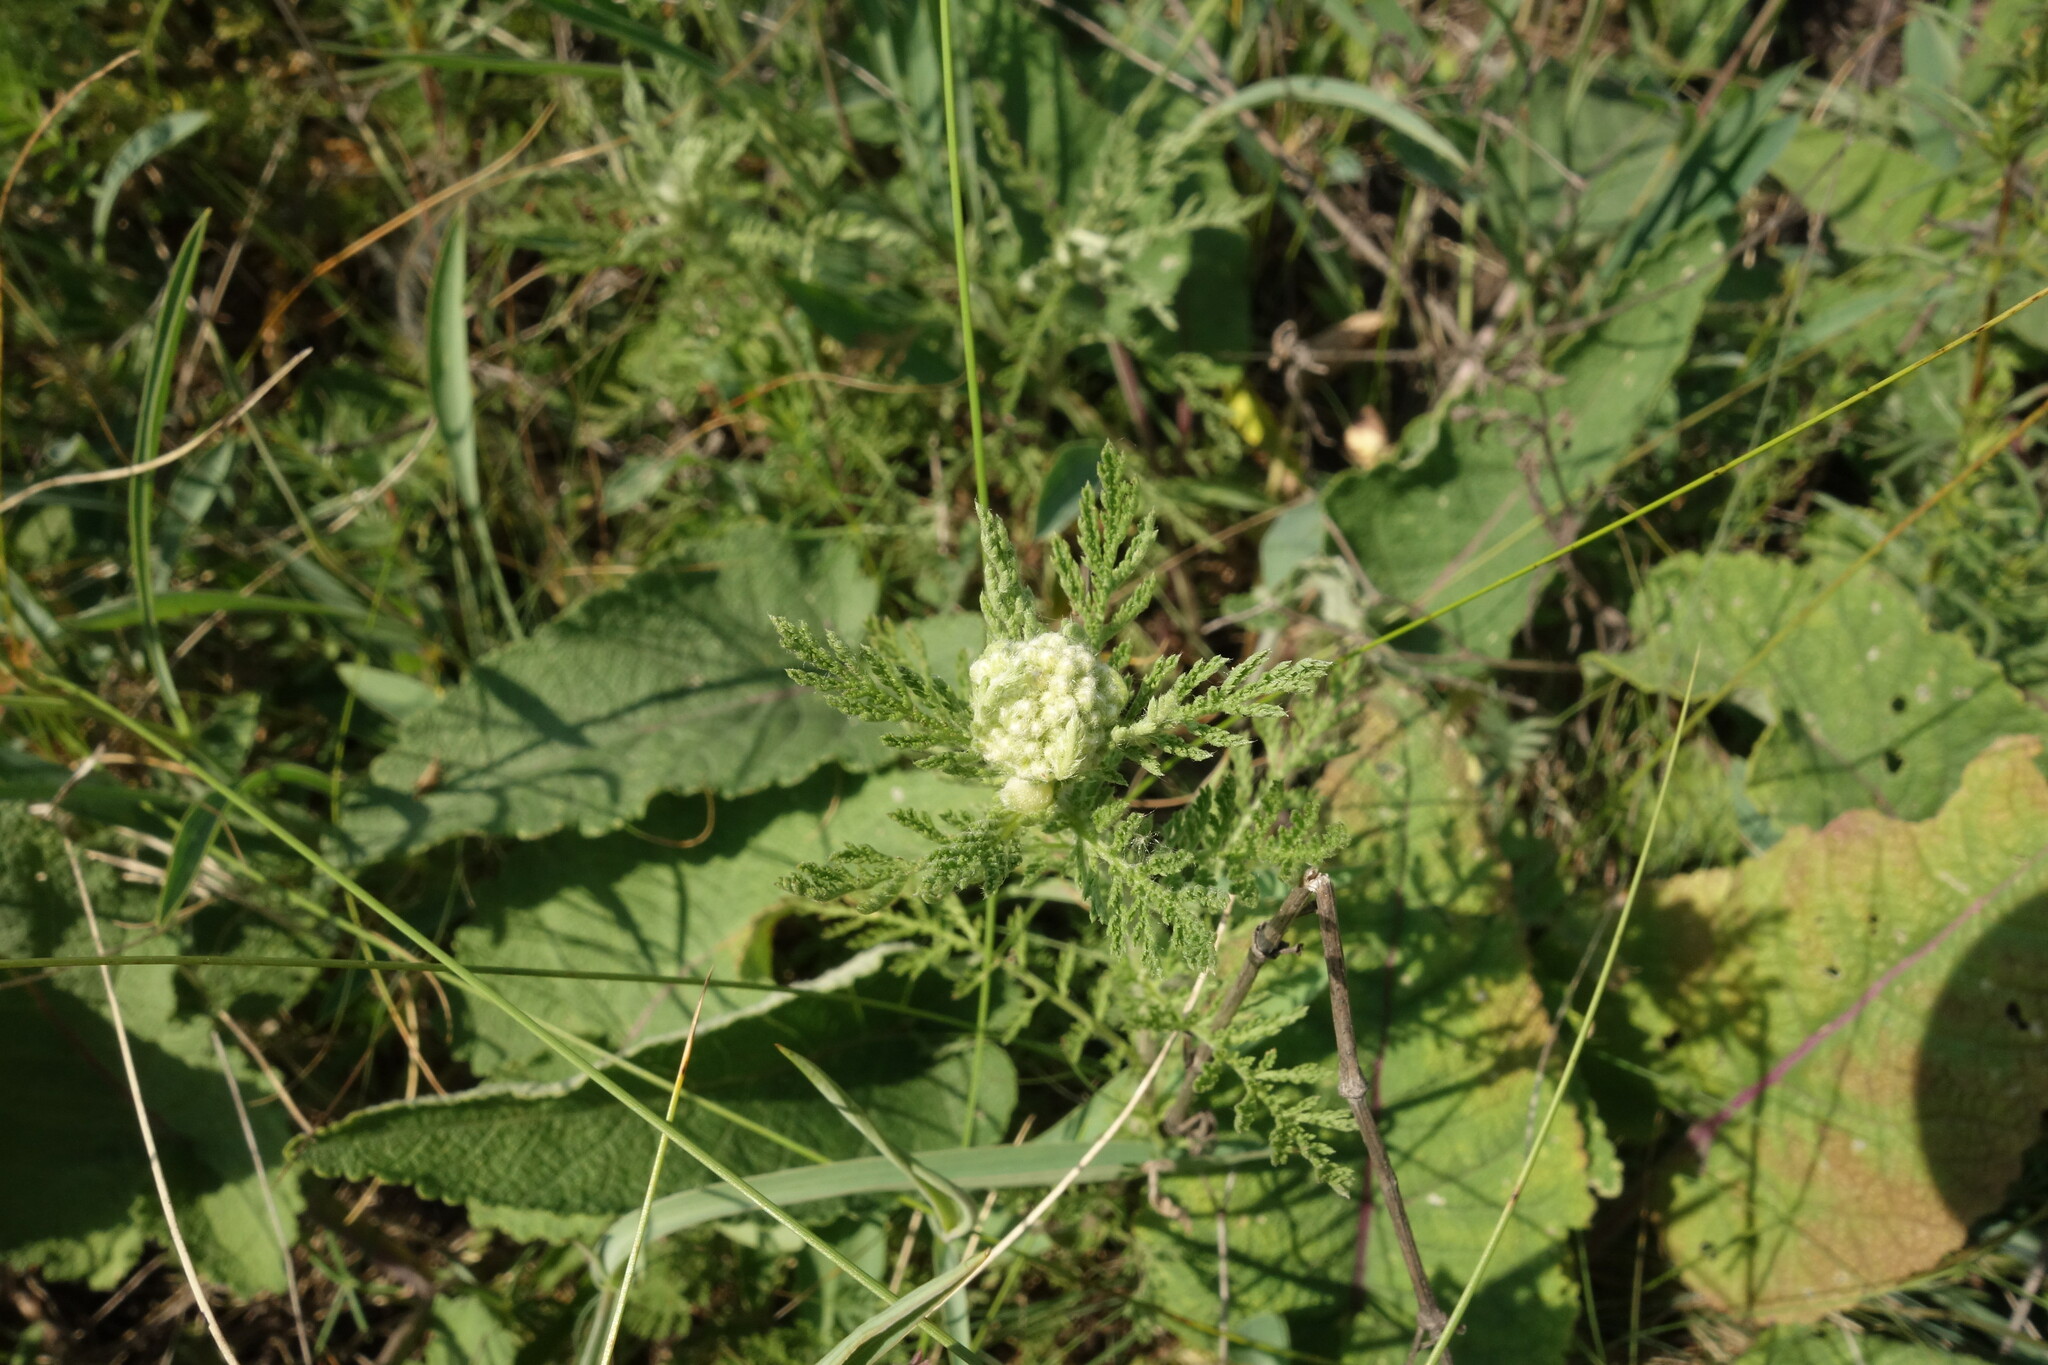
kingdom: Plantae
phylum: Tracheophyta
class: Magnoliopsida
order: Asterales
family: Asteraceae
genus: Achillea
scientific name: Achillea nobilis
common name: Noble yarrow
